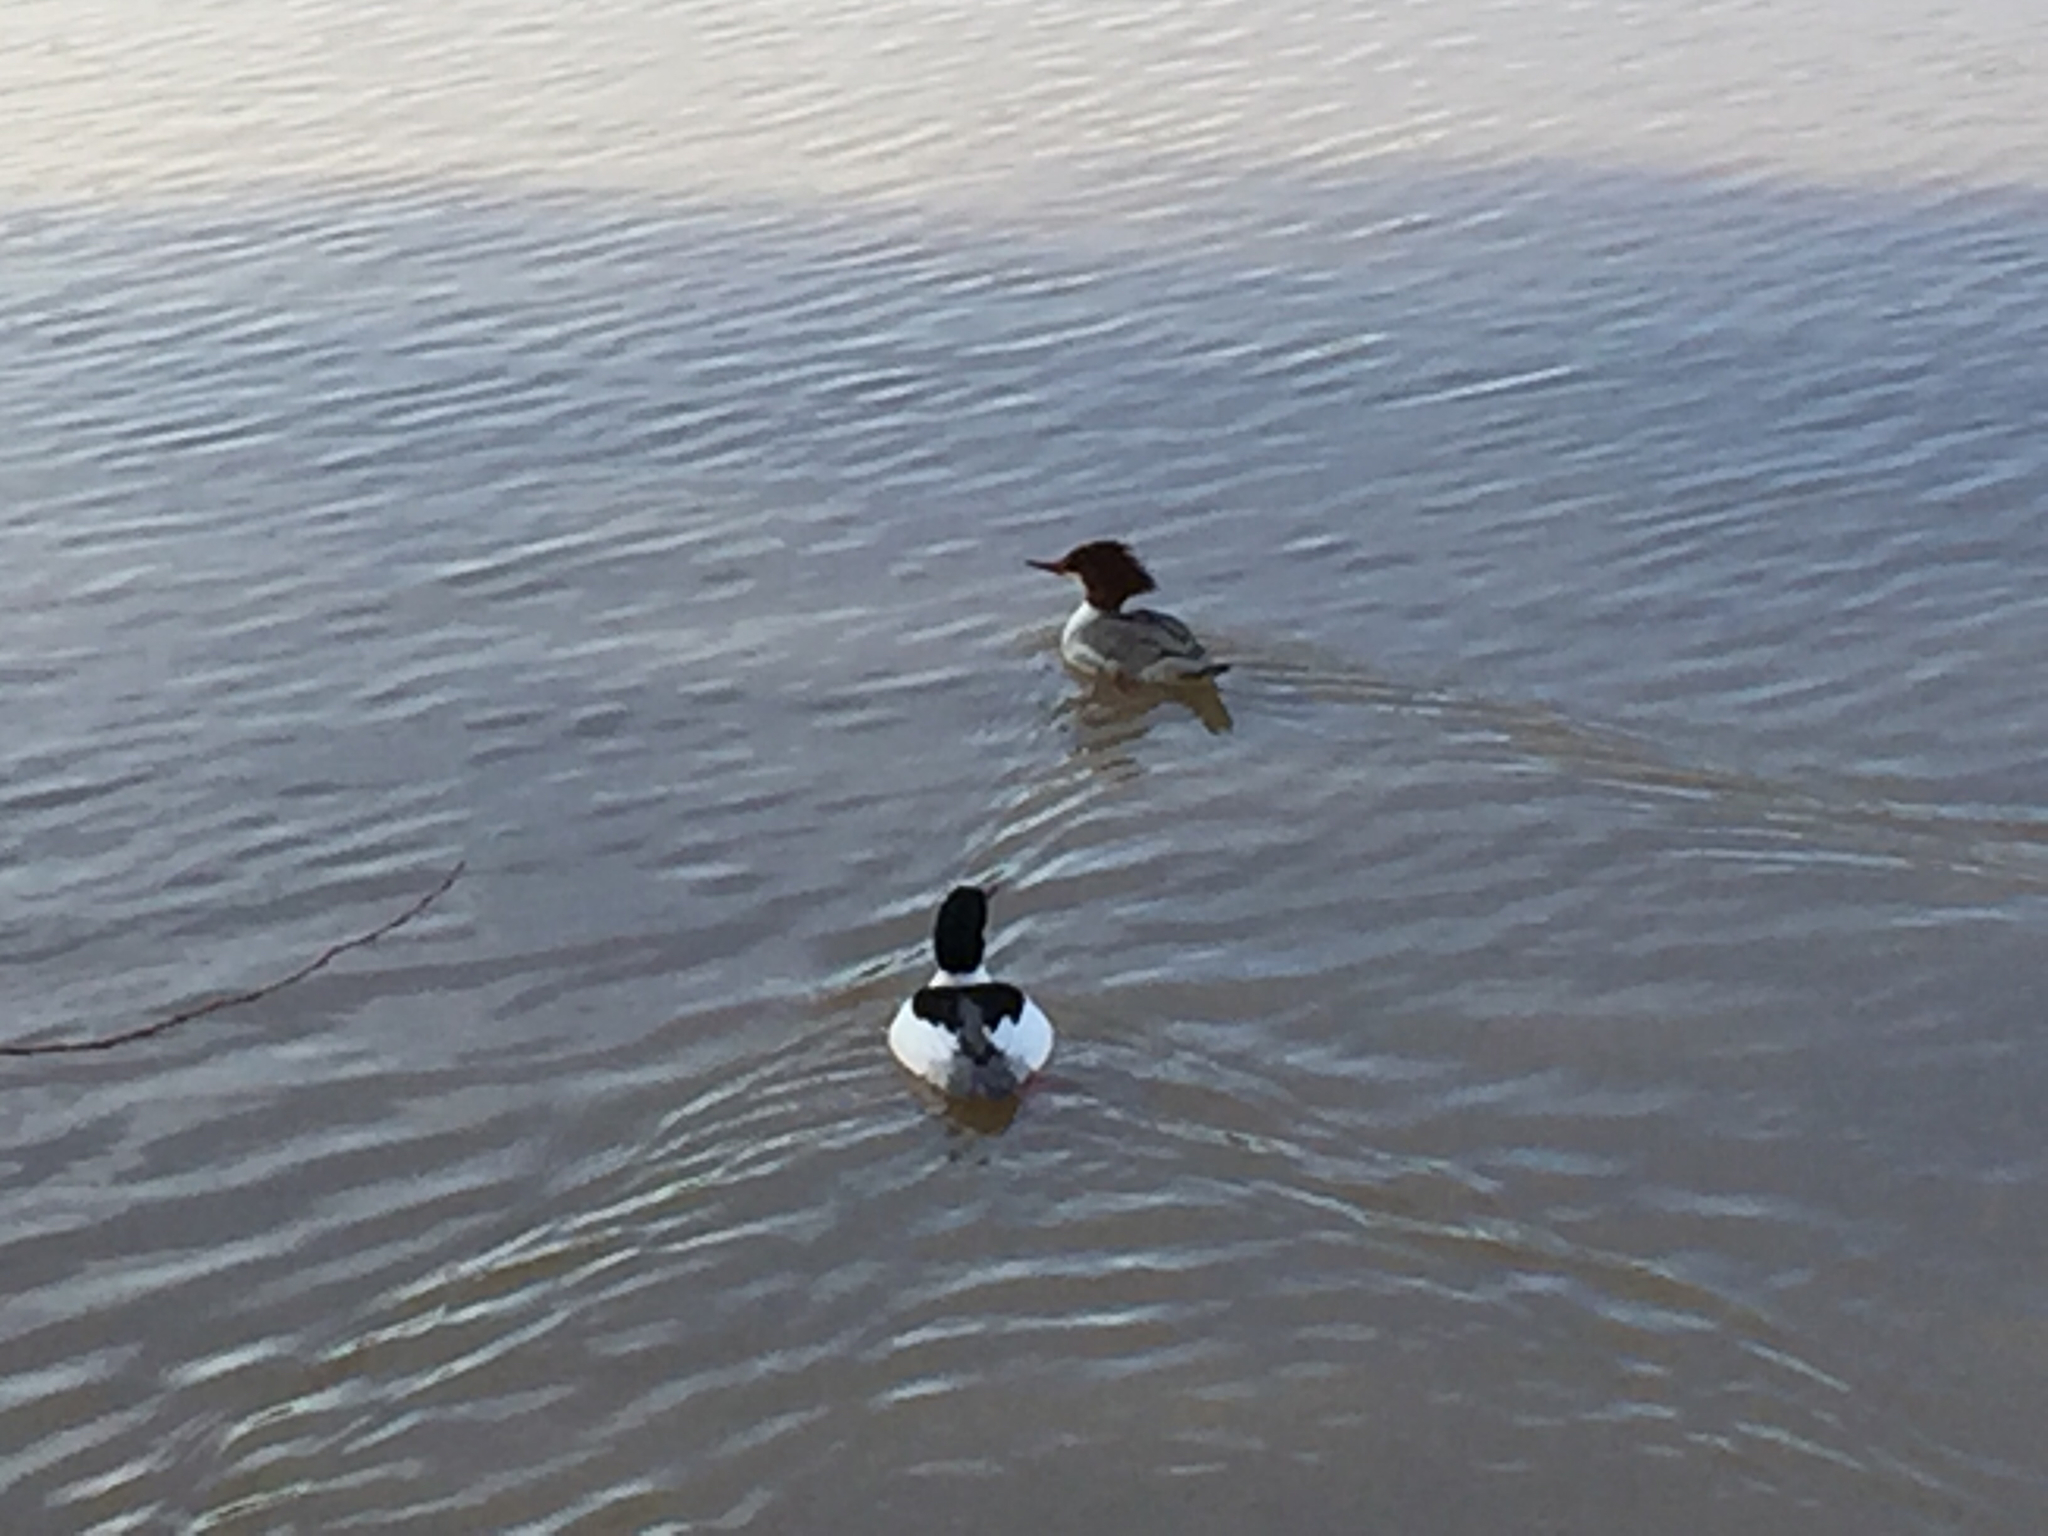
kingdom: Animalia
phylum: Chordata
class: Aves
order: Anseriformes
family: Anatidae
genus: Mergus
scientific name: Mergus merganser
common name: Common merganser
